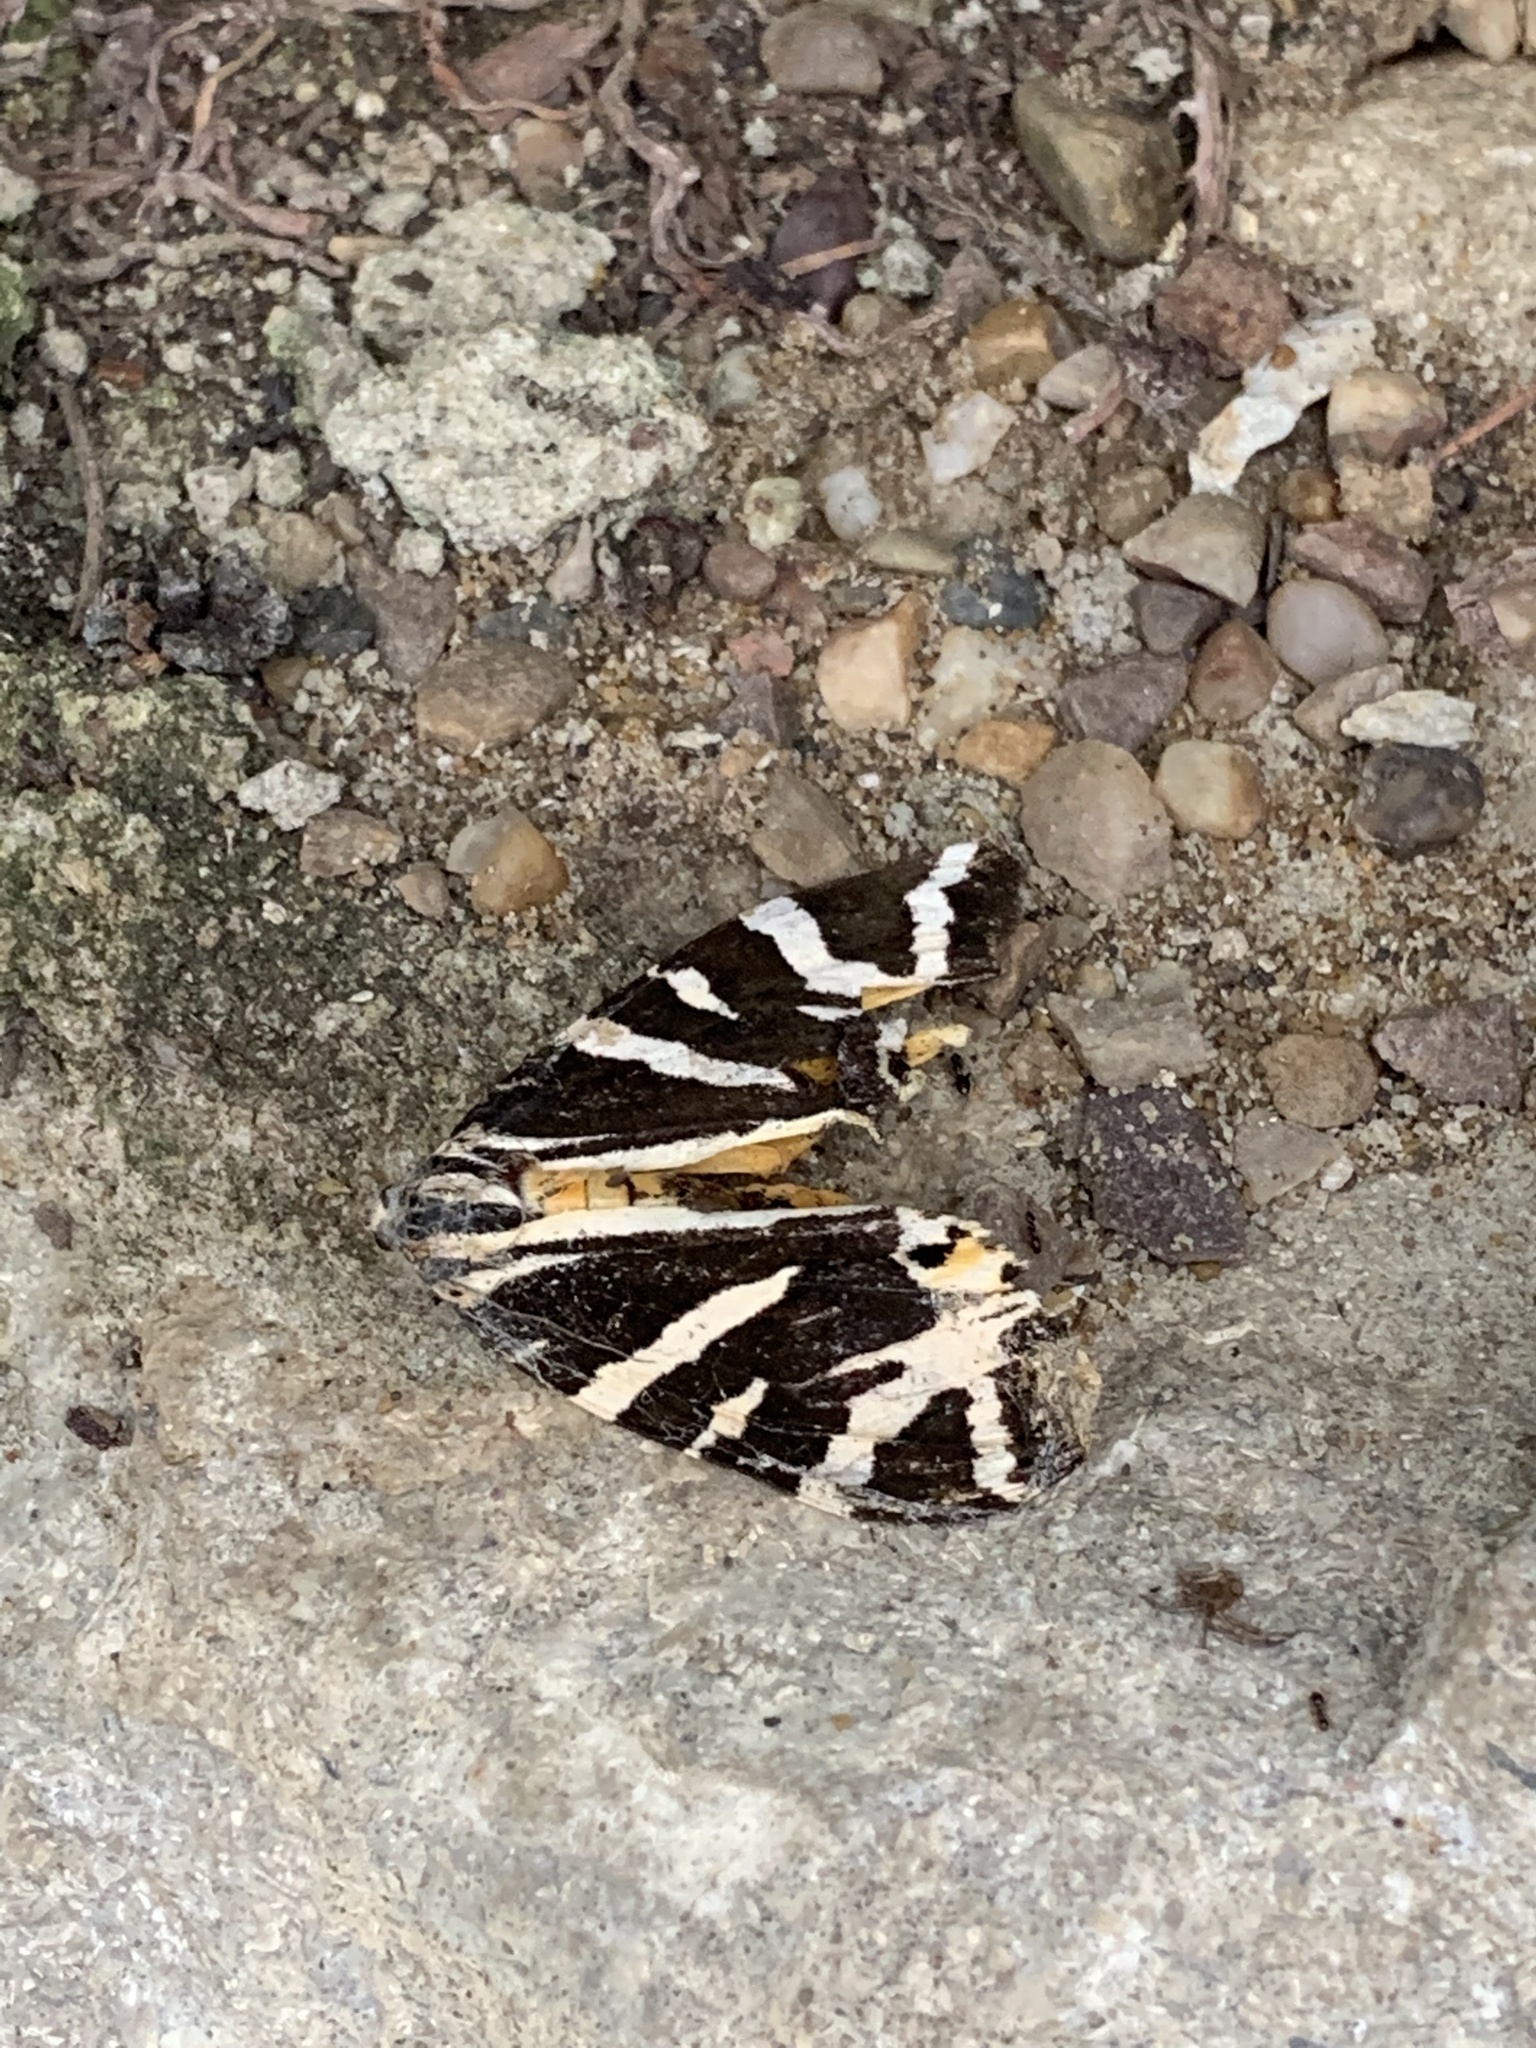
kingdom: Animalia
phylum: Arthropoda
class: Insecta
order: Lepidoptera
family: Erebidae
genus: Euplagia
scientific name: Euplagia quadripunctaria
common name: Jersey tiger
